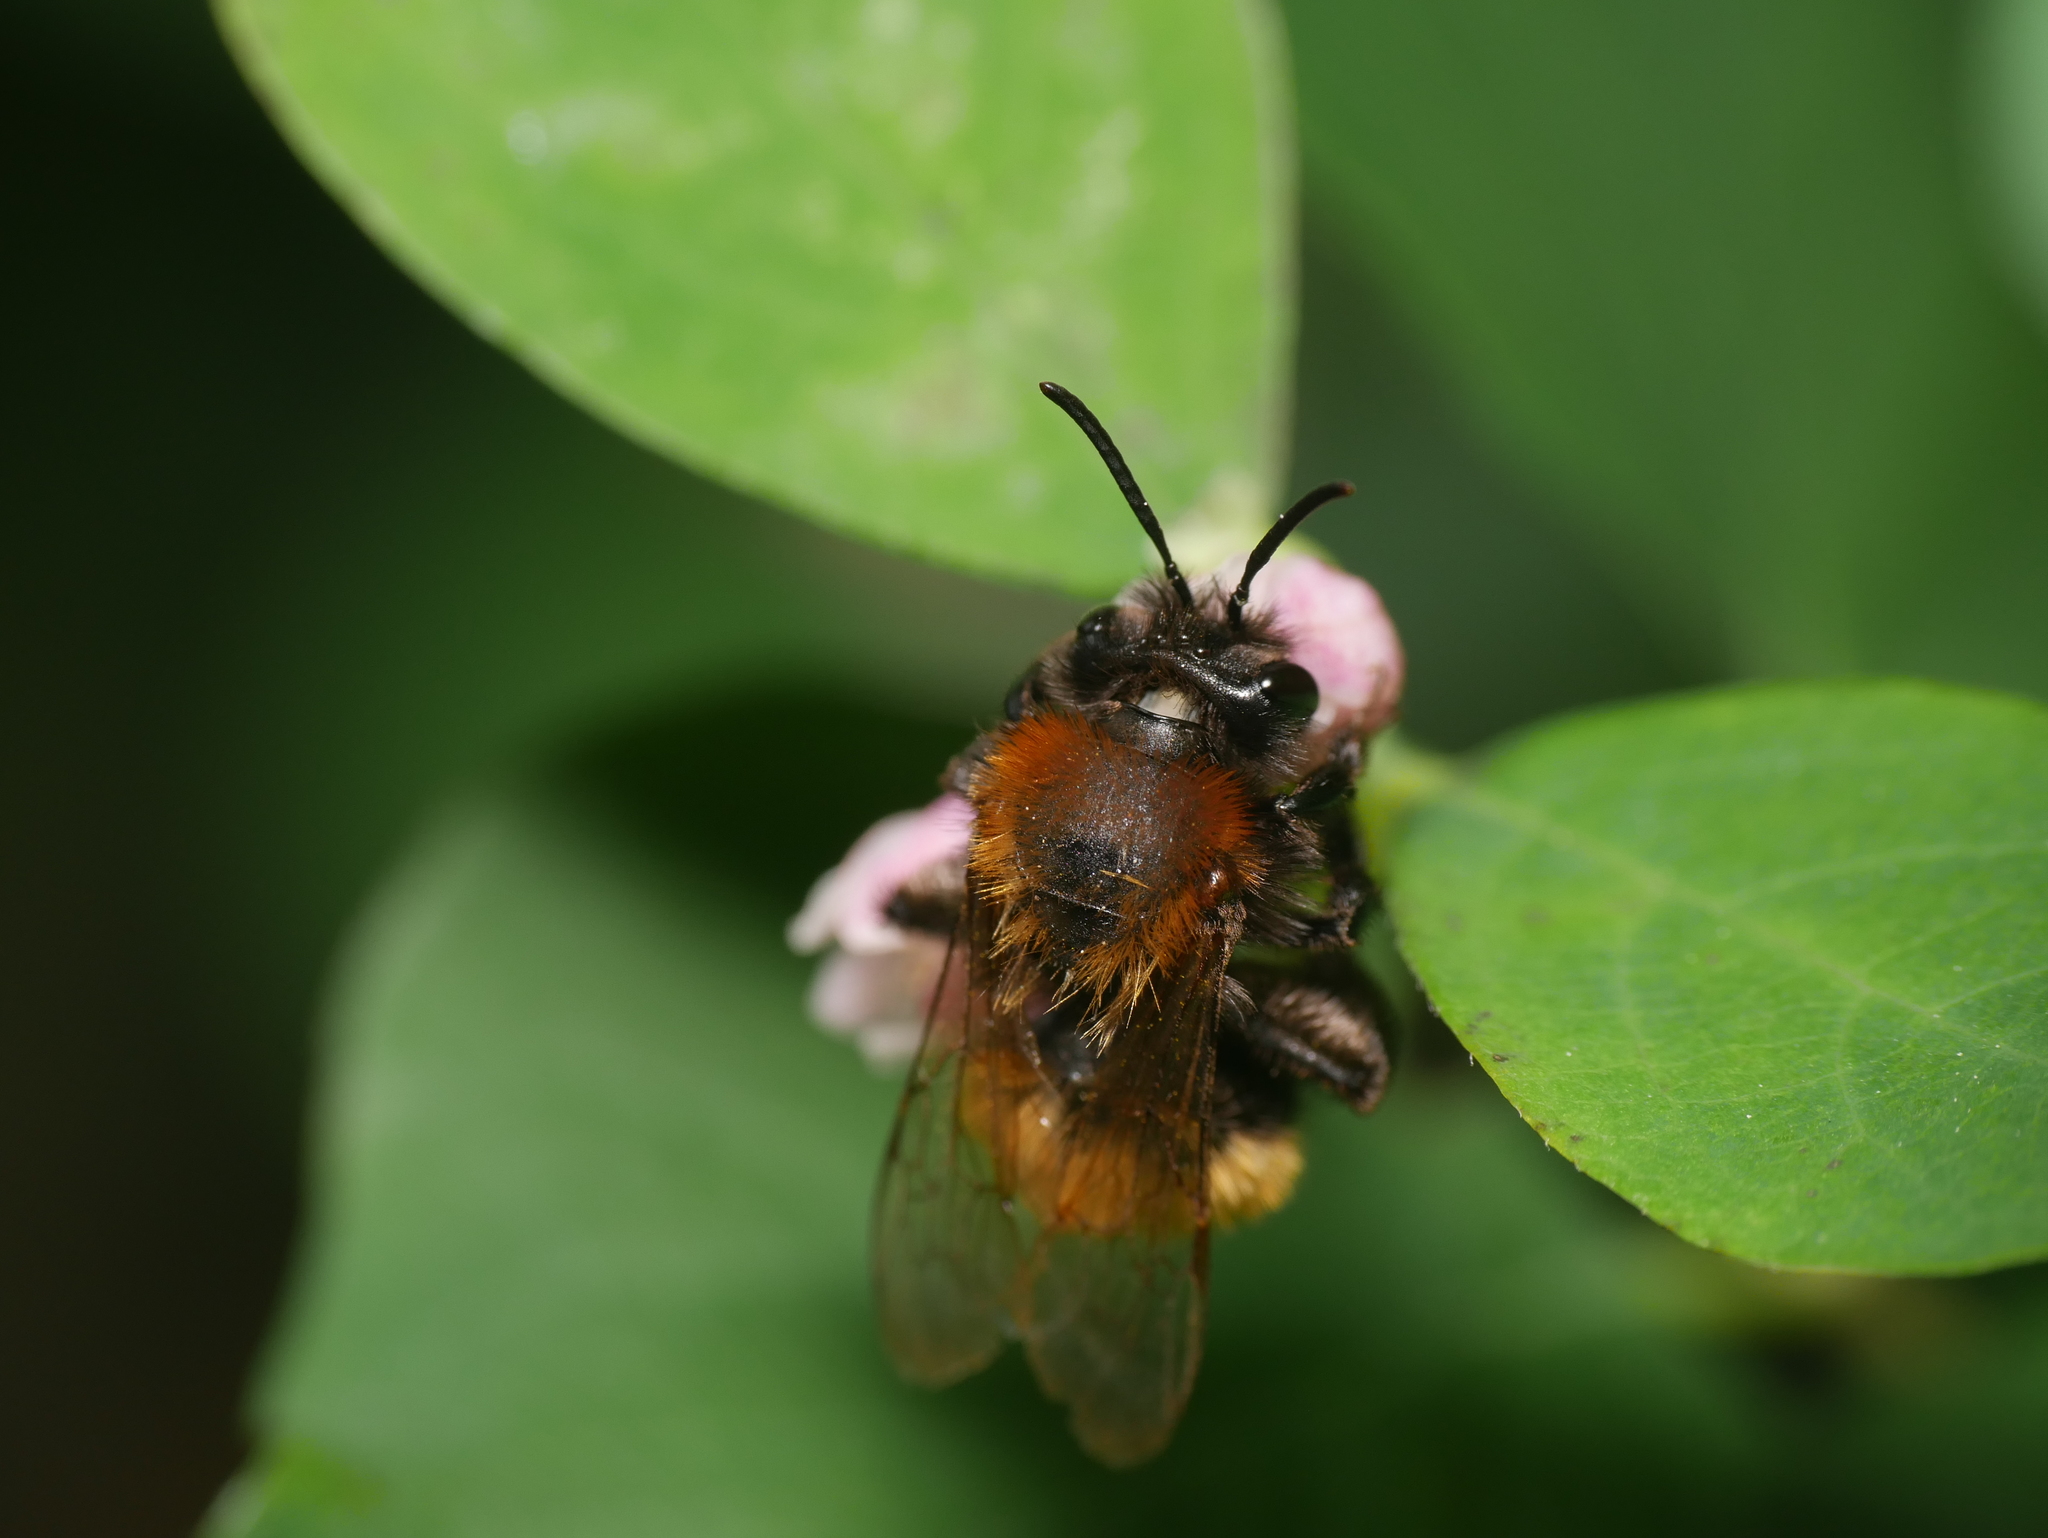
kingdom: Animalia
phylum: Arthropoda
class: Insecta
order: Hymenoptera
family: Andrenidae
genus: Andrena
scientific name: Andrena fulva
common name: Tawny mining bee
